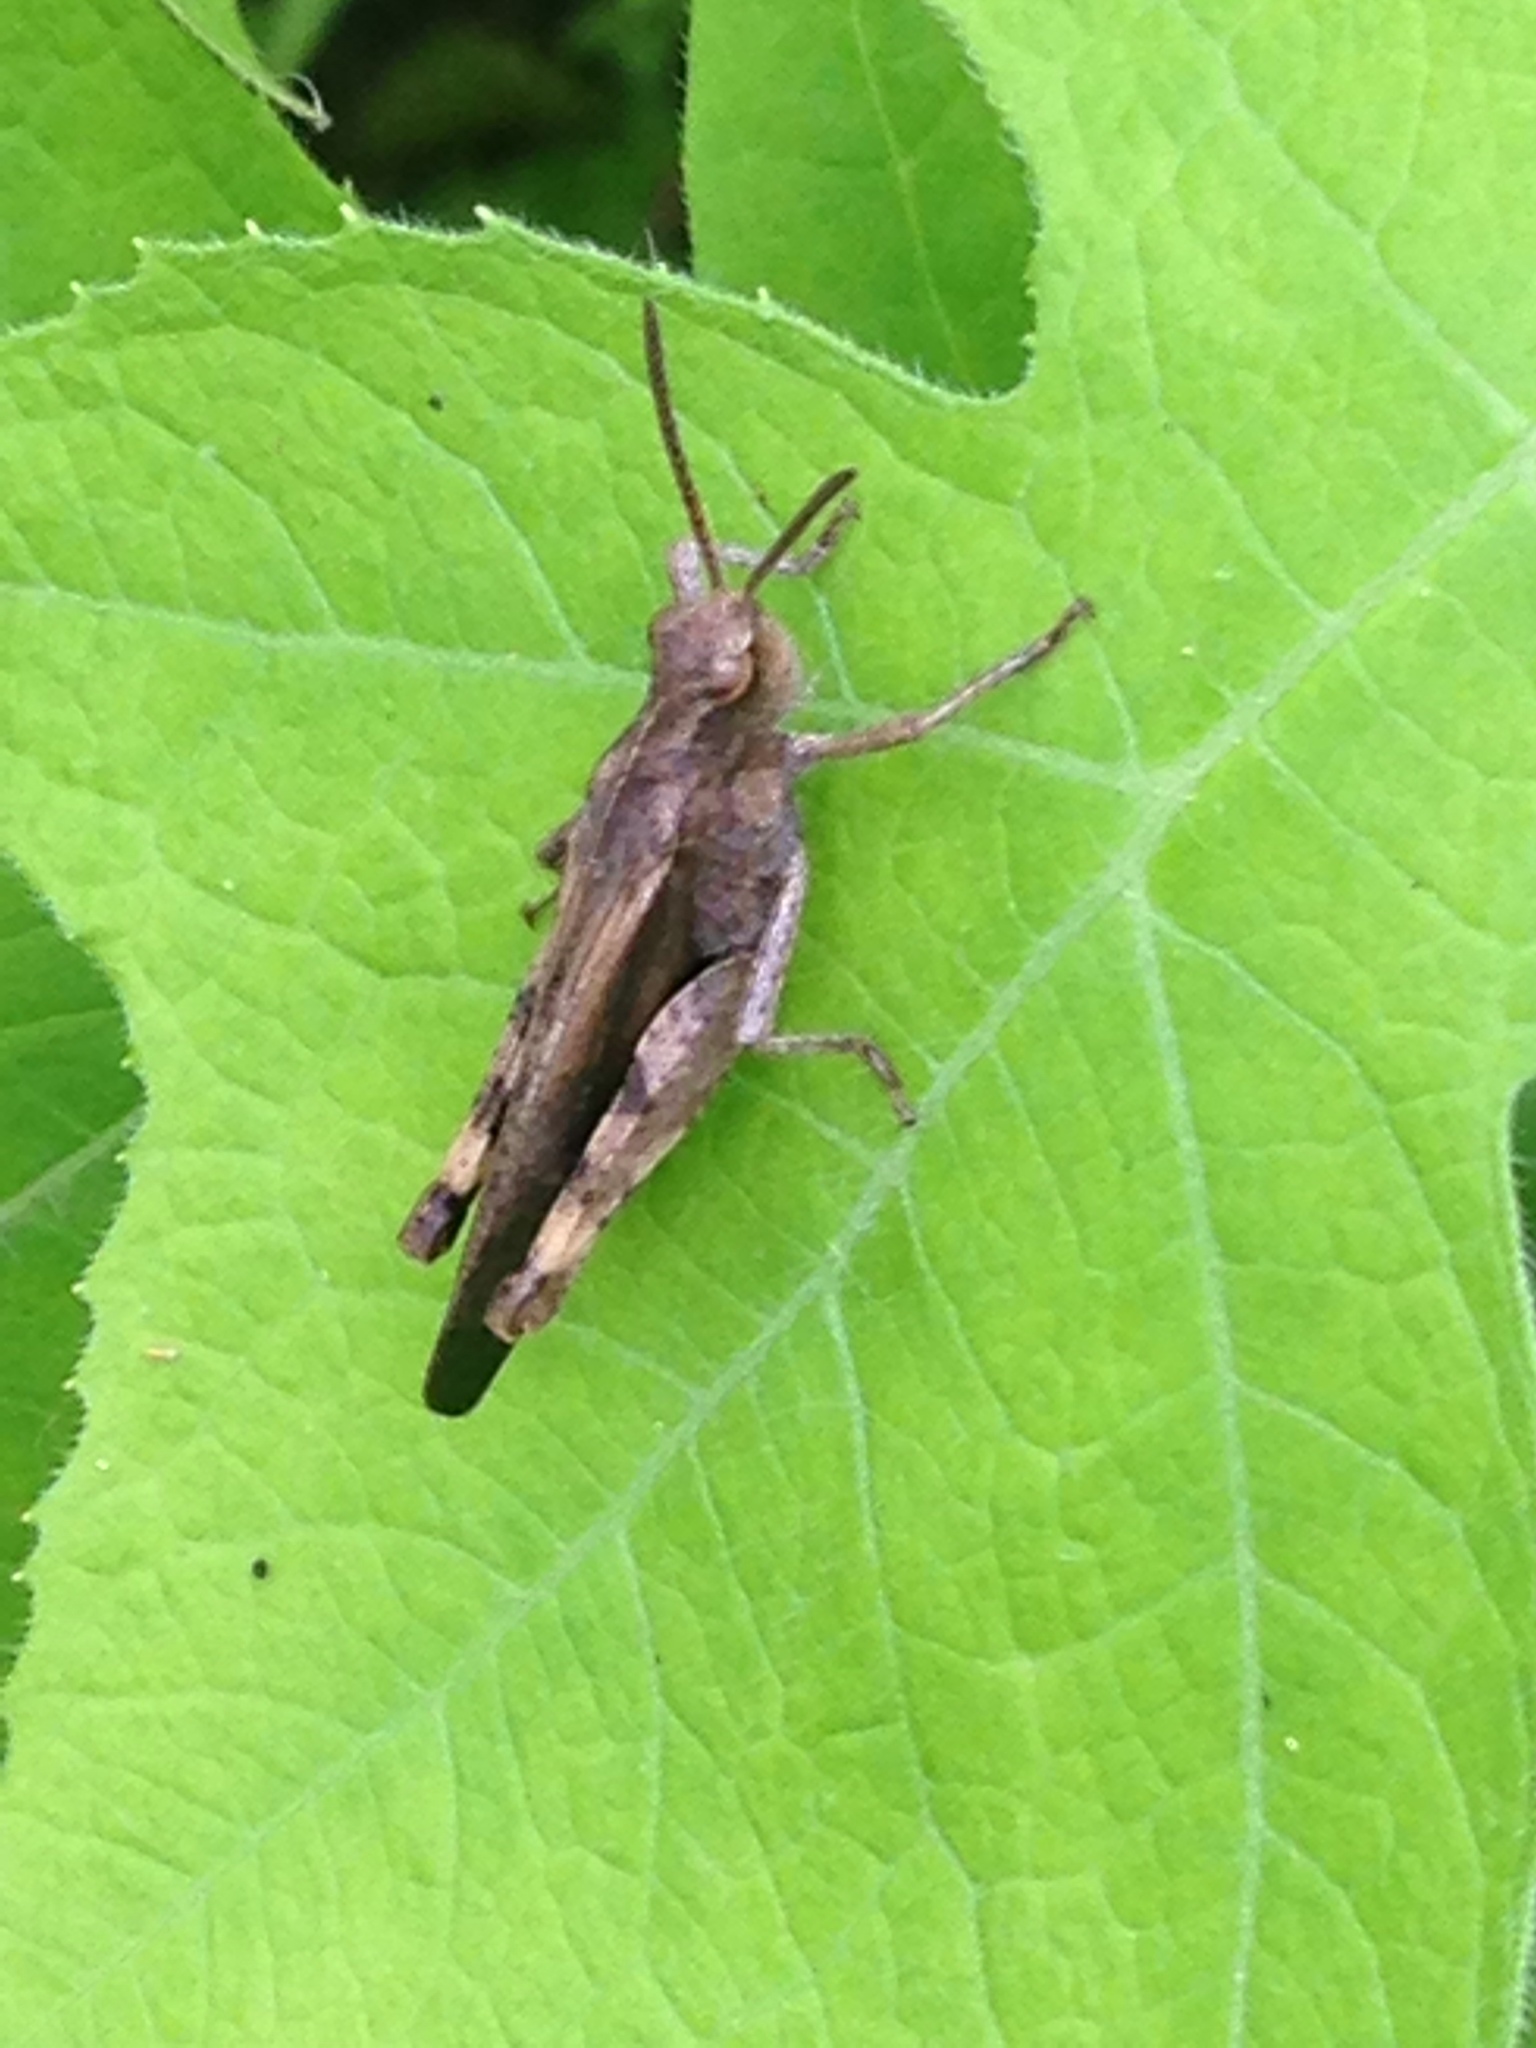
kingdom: Animalia
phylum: Arthropoda
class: Insecta
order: Orthoptera
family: Acrididae
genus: Chortophaga
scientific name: Chortophaga viridifasciata
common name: Green-striped grasshopper
